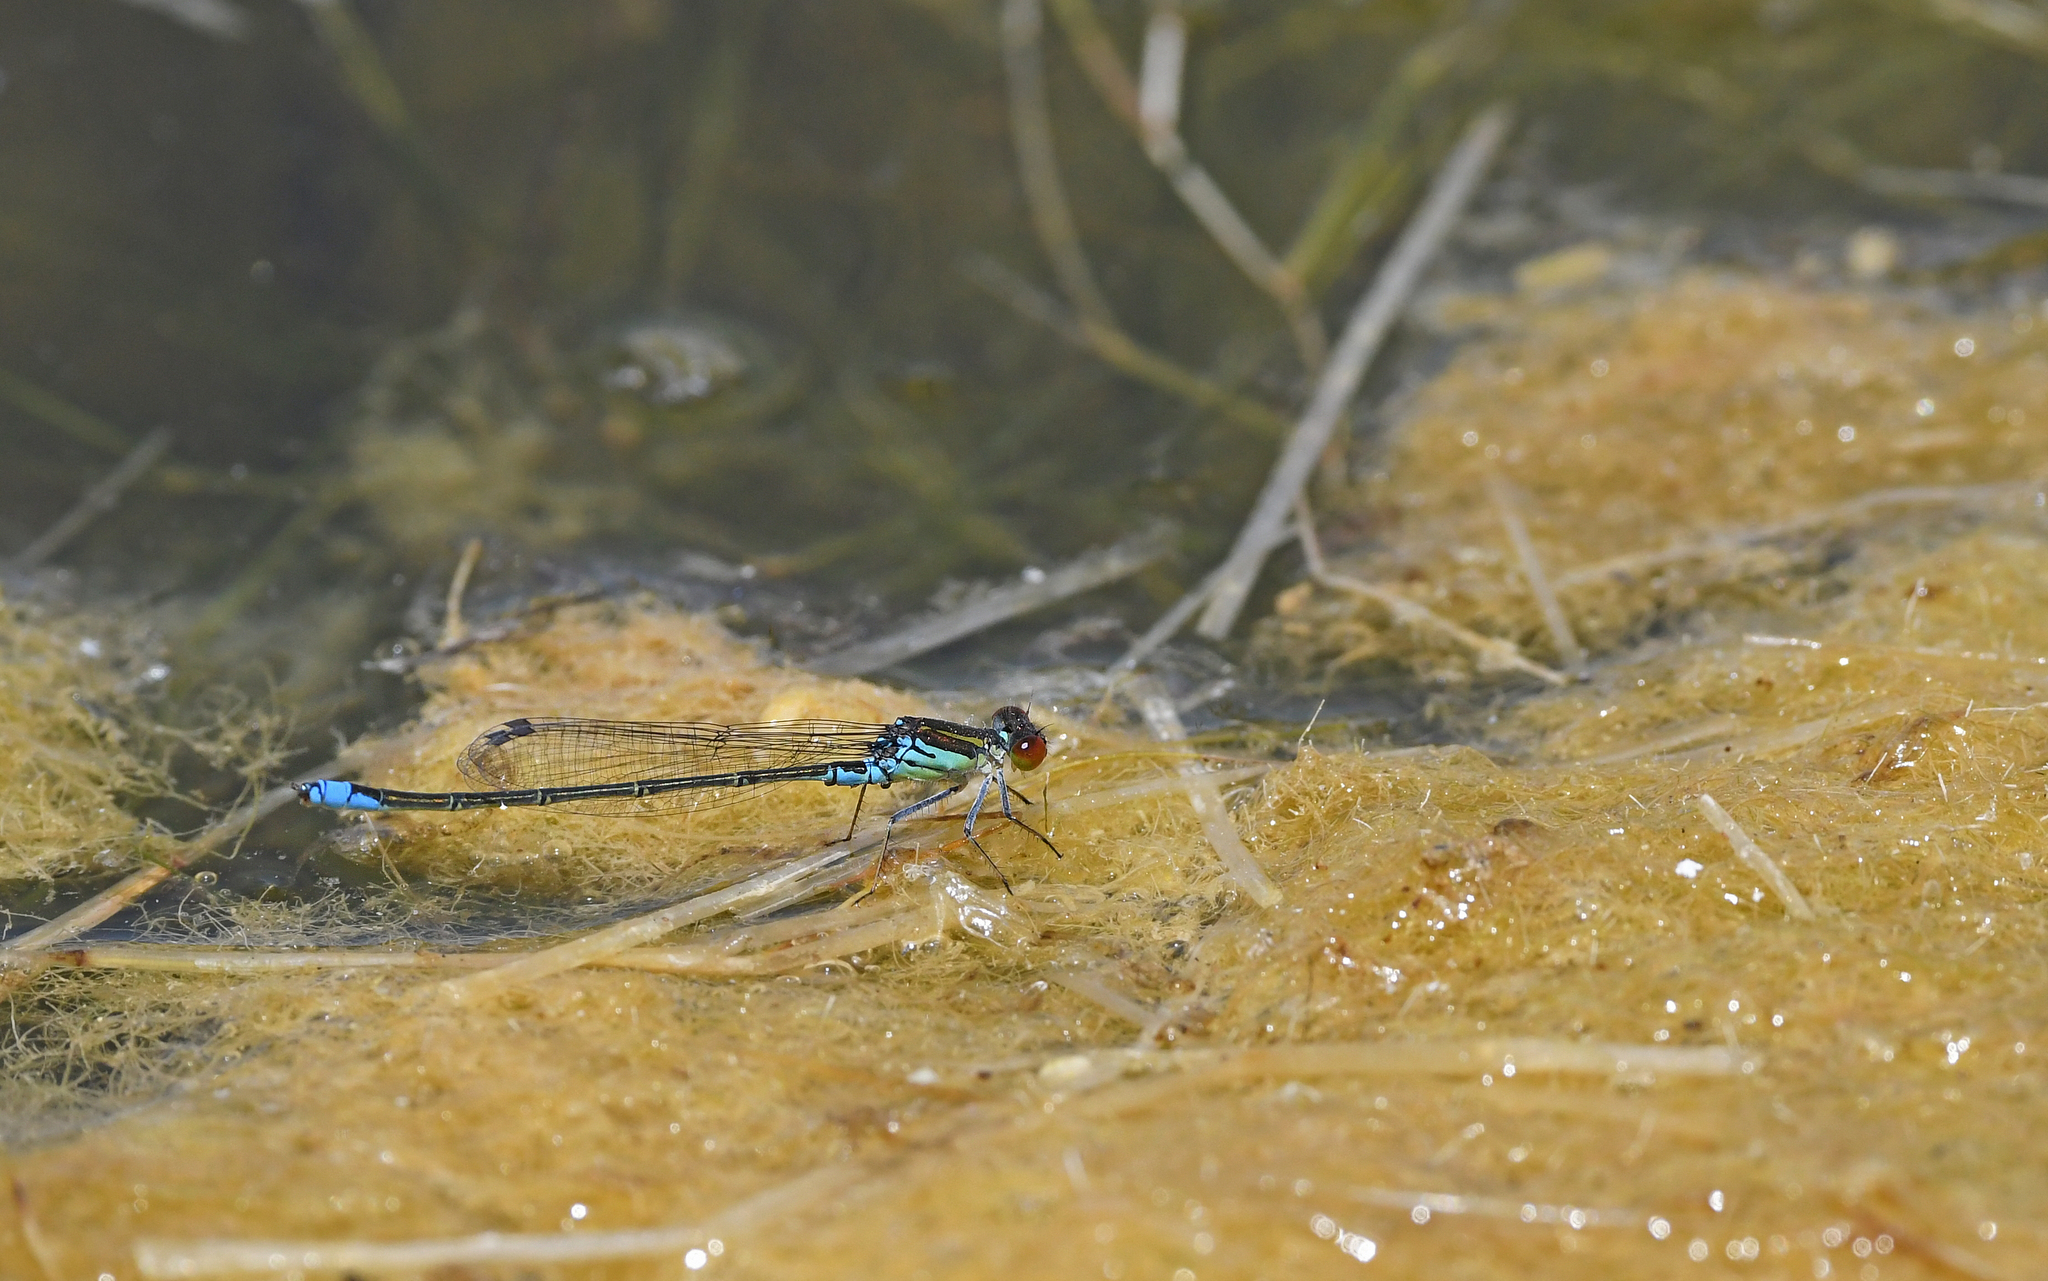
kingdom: Animalia
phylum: Arthropoda
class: Insecta
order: Odonata
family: Coenagrionidae
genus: Erythromma
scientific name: Erythromma viridulum
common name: Small red-eyed damselfly
